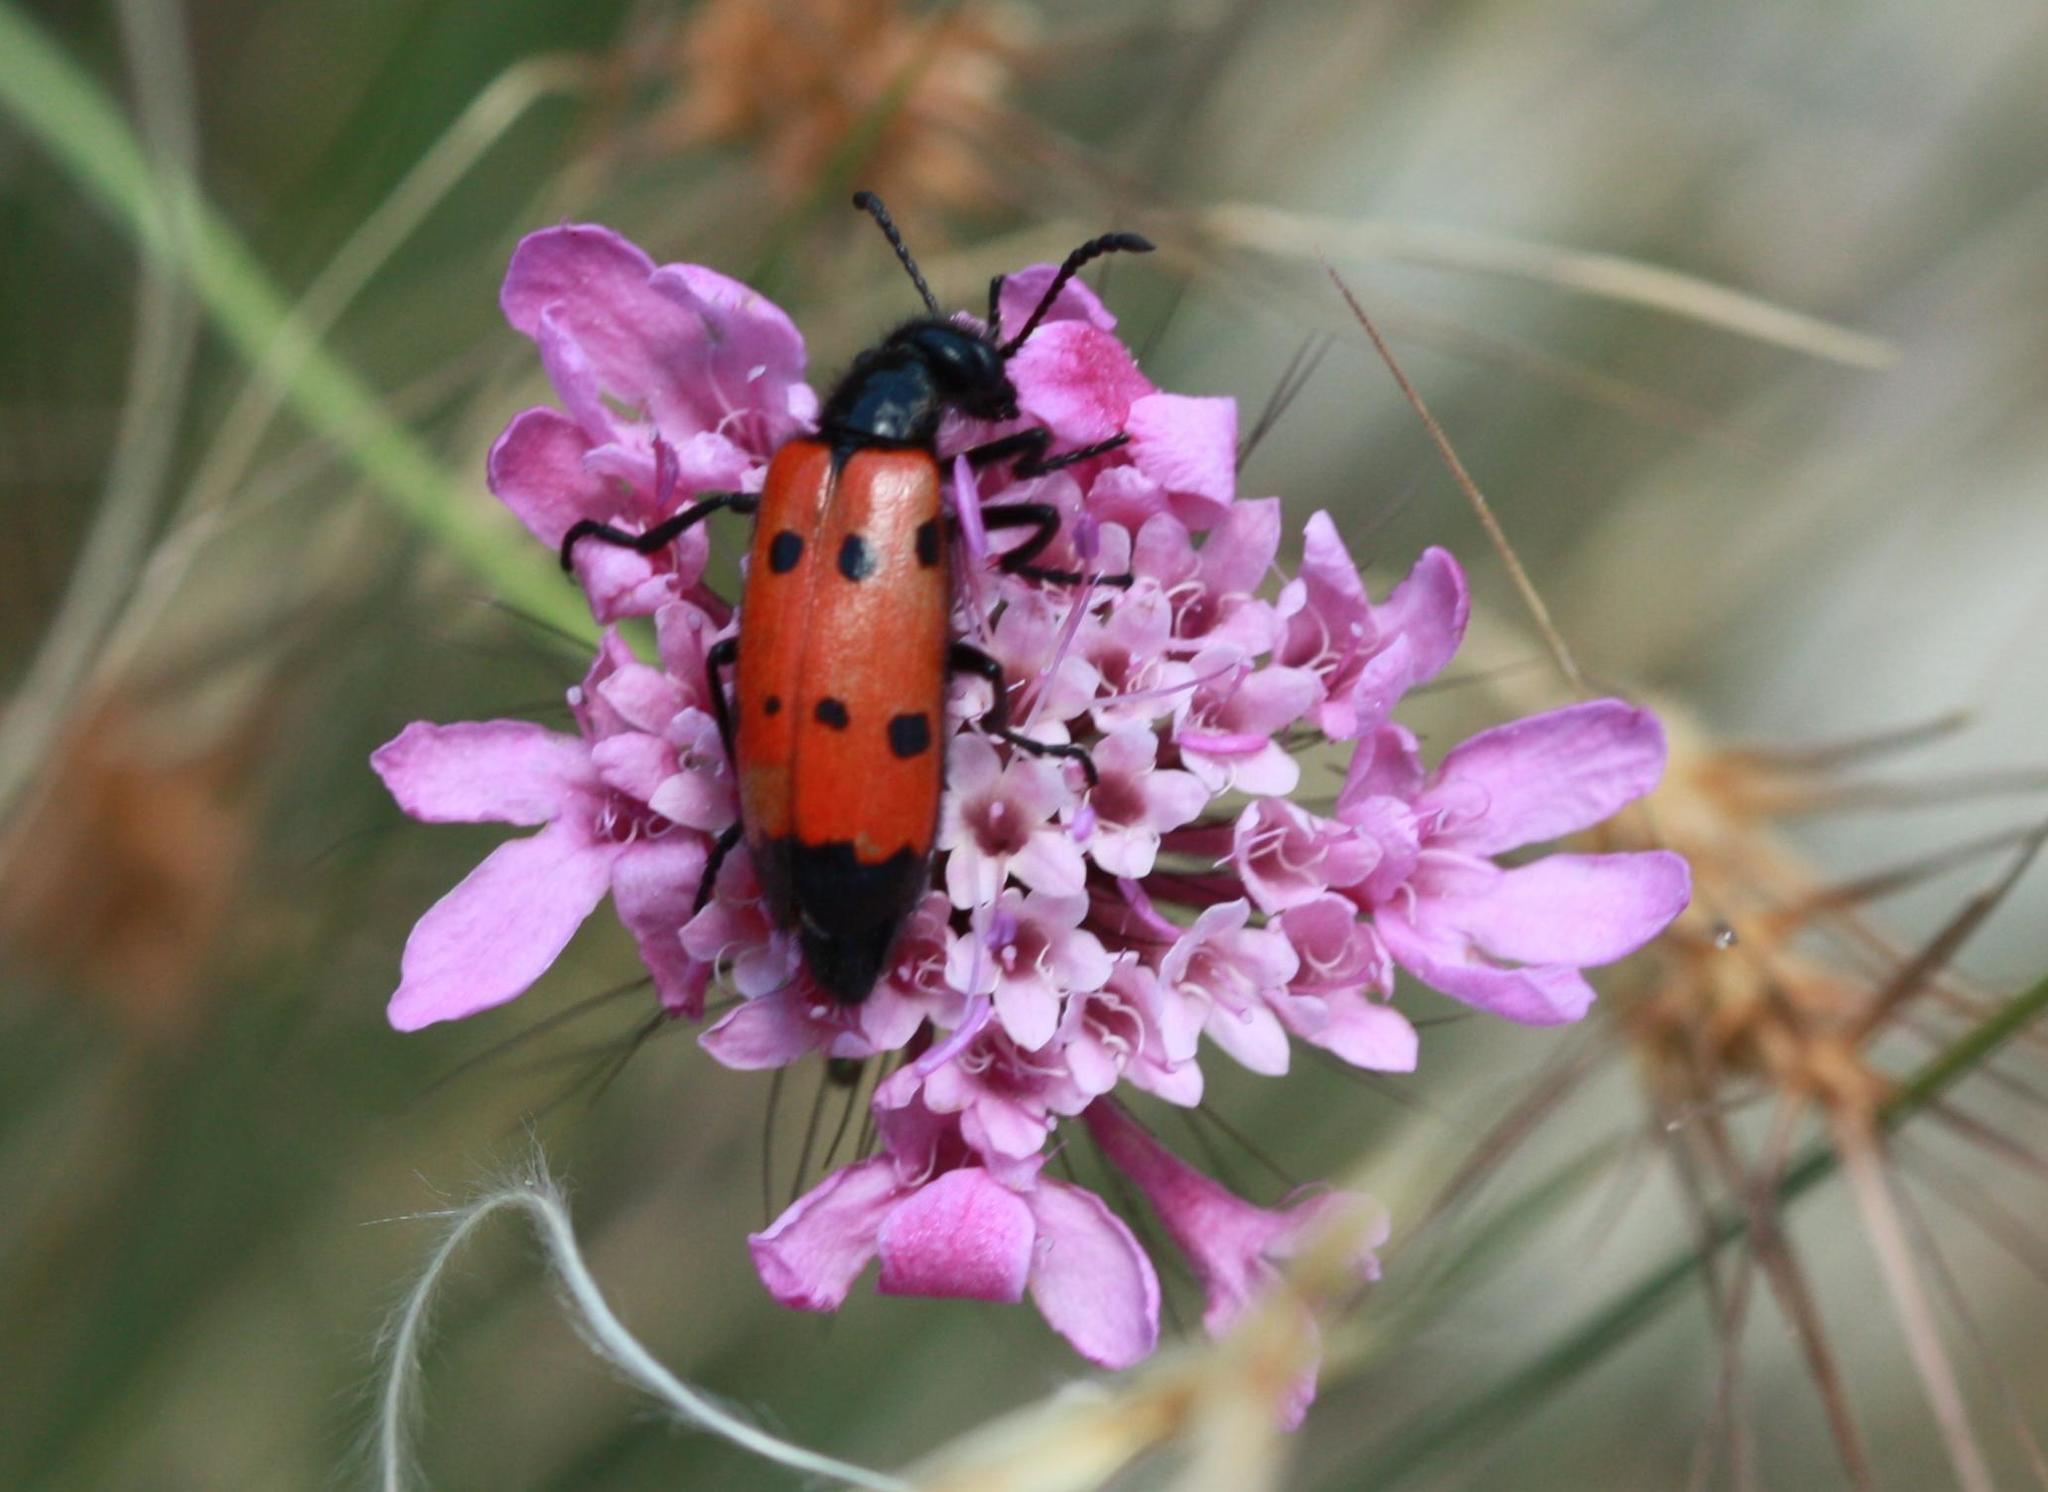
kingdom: Animalia
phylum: Arthropoda
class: Insecta
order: Coleoptera
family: Meloidae
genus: Mylabris
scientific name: Mylabris quadripunctata
